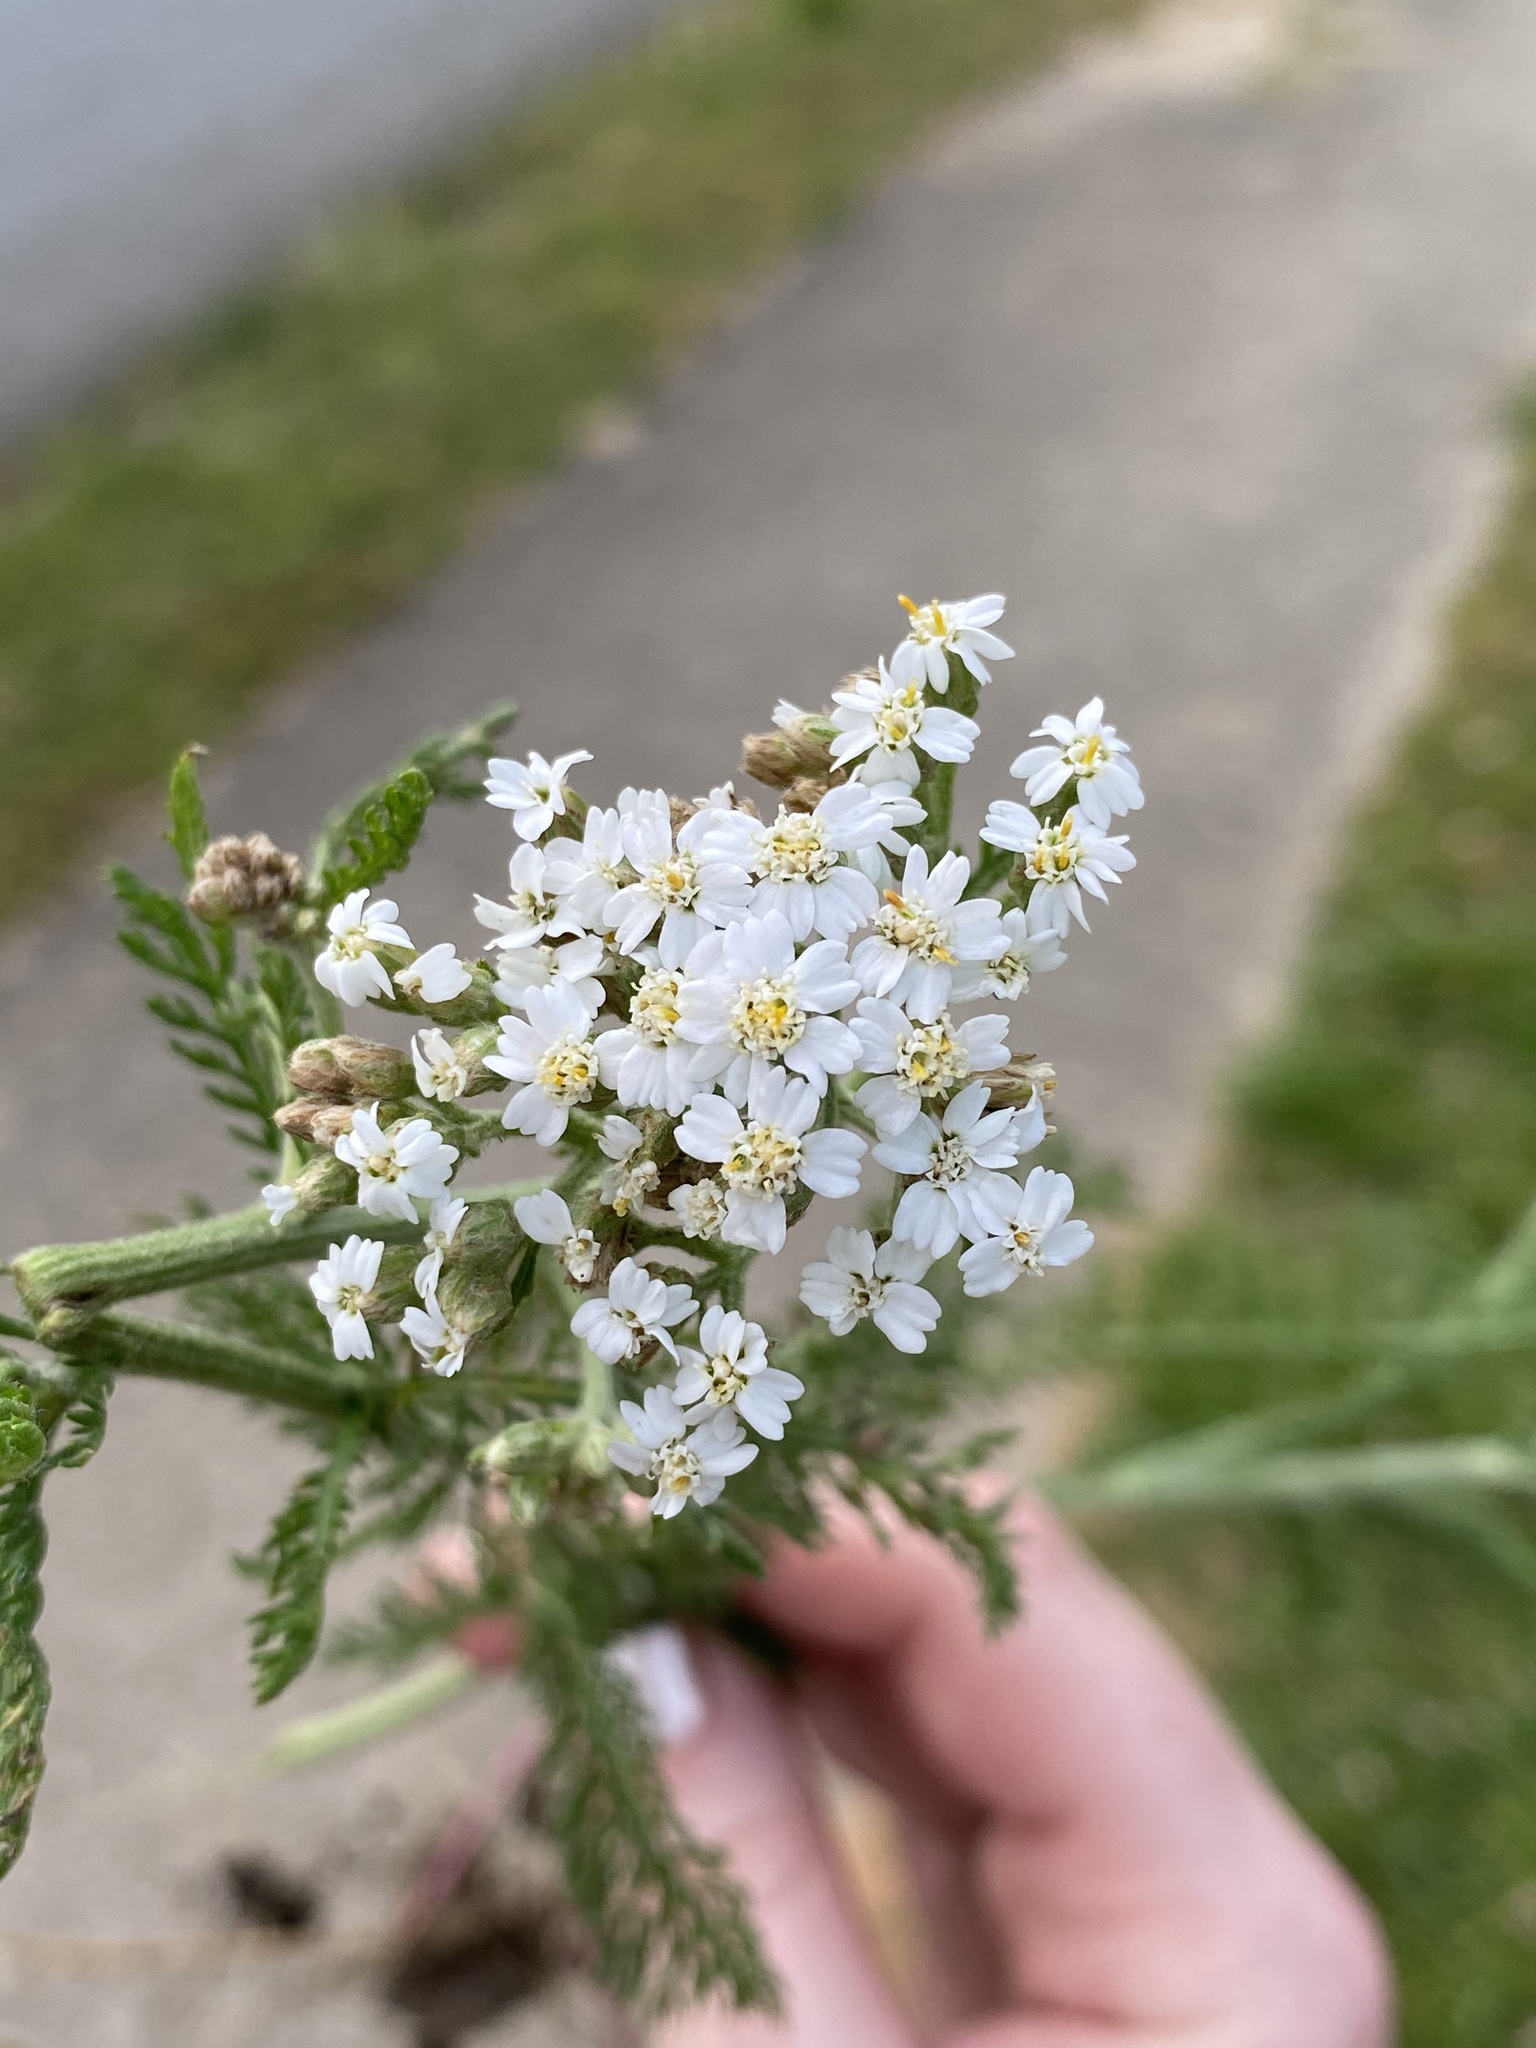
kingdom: Plantae
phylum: Tracheophyta
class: Magnoliopsida
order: Asterales
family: Asteraceae
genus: Achillea
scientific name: Achillea millefolium
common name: Yarrow
